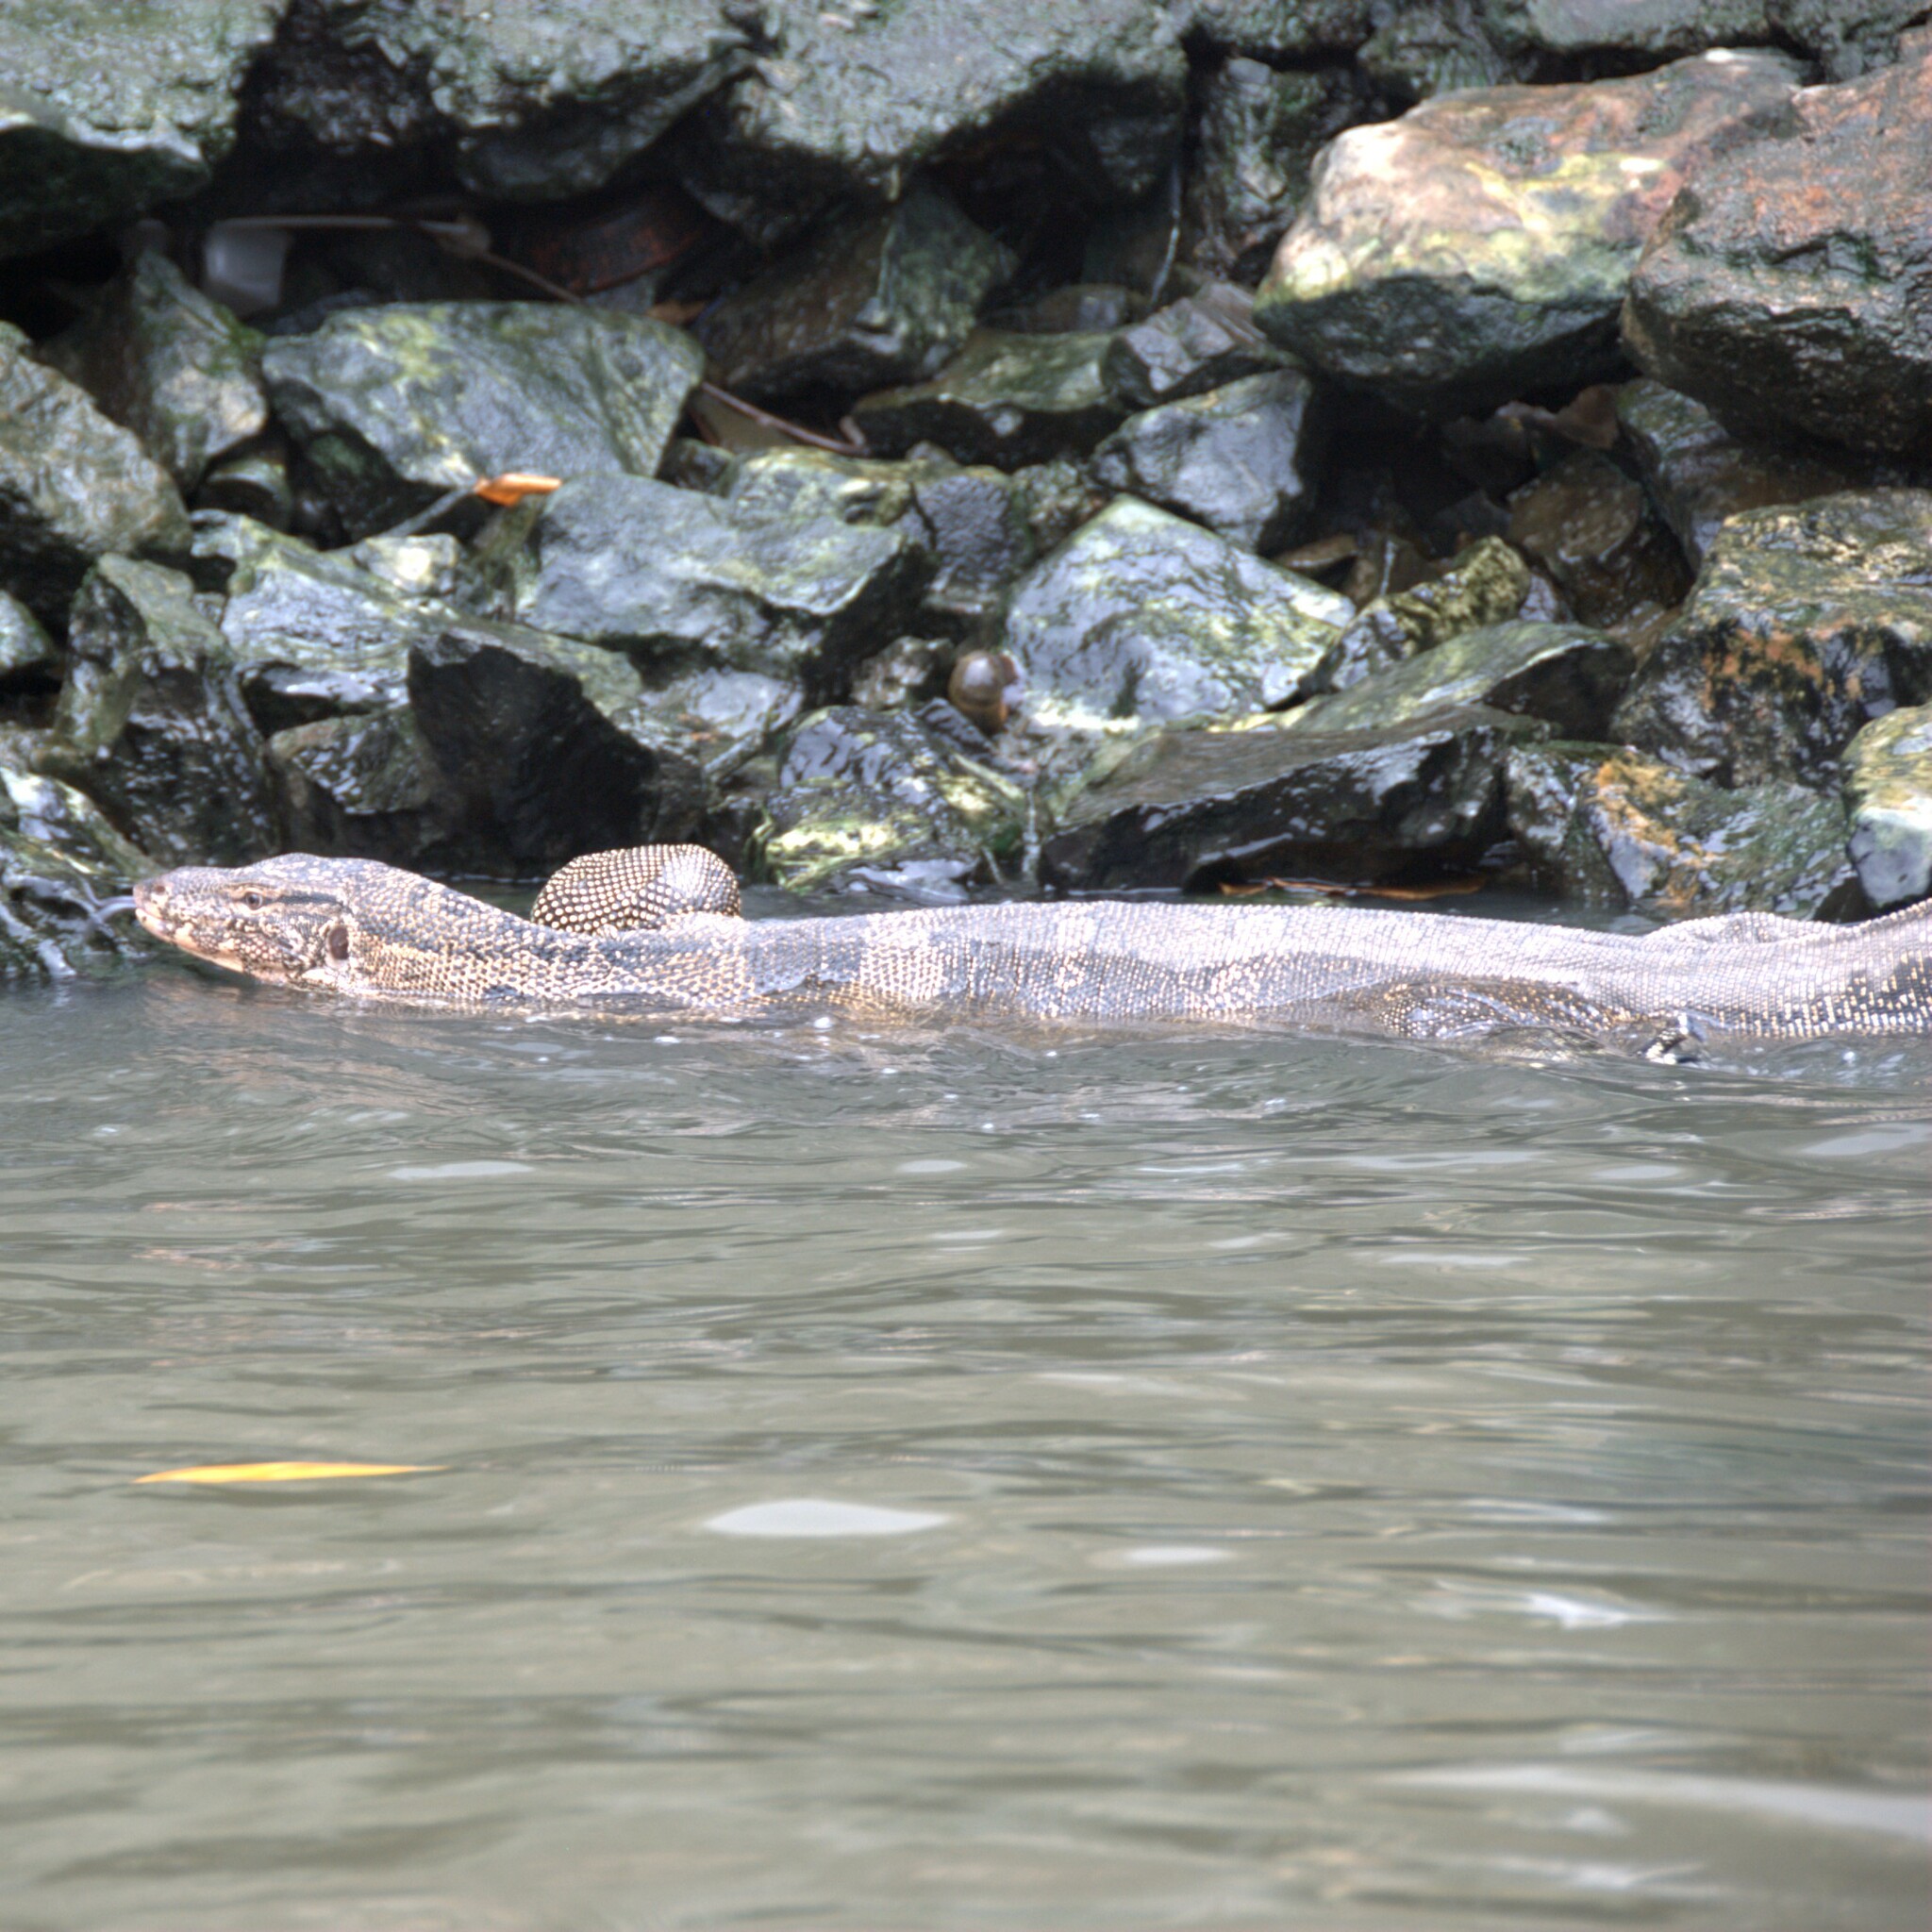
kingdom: Animalia
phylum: Chordata
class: Squamata
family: Varanidae
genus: Varanus
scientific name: Varanus salvator
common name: Common water monitor
